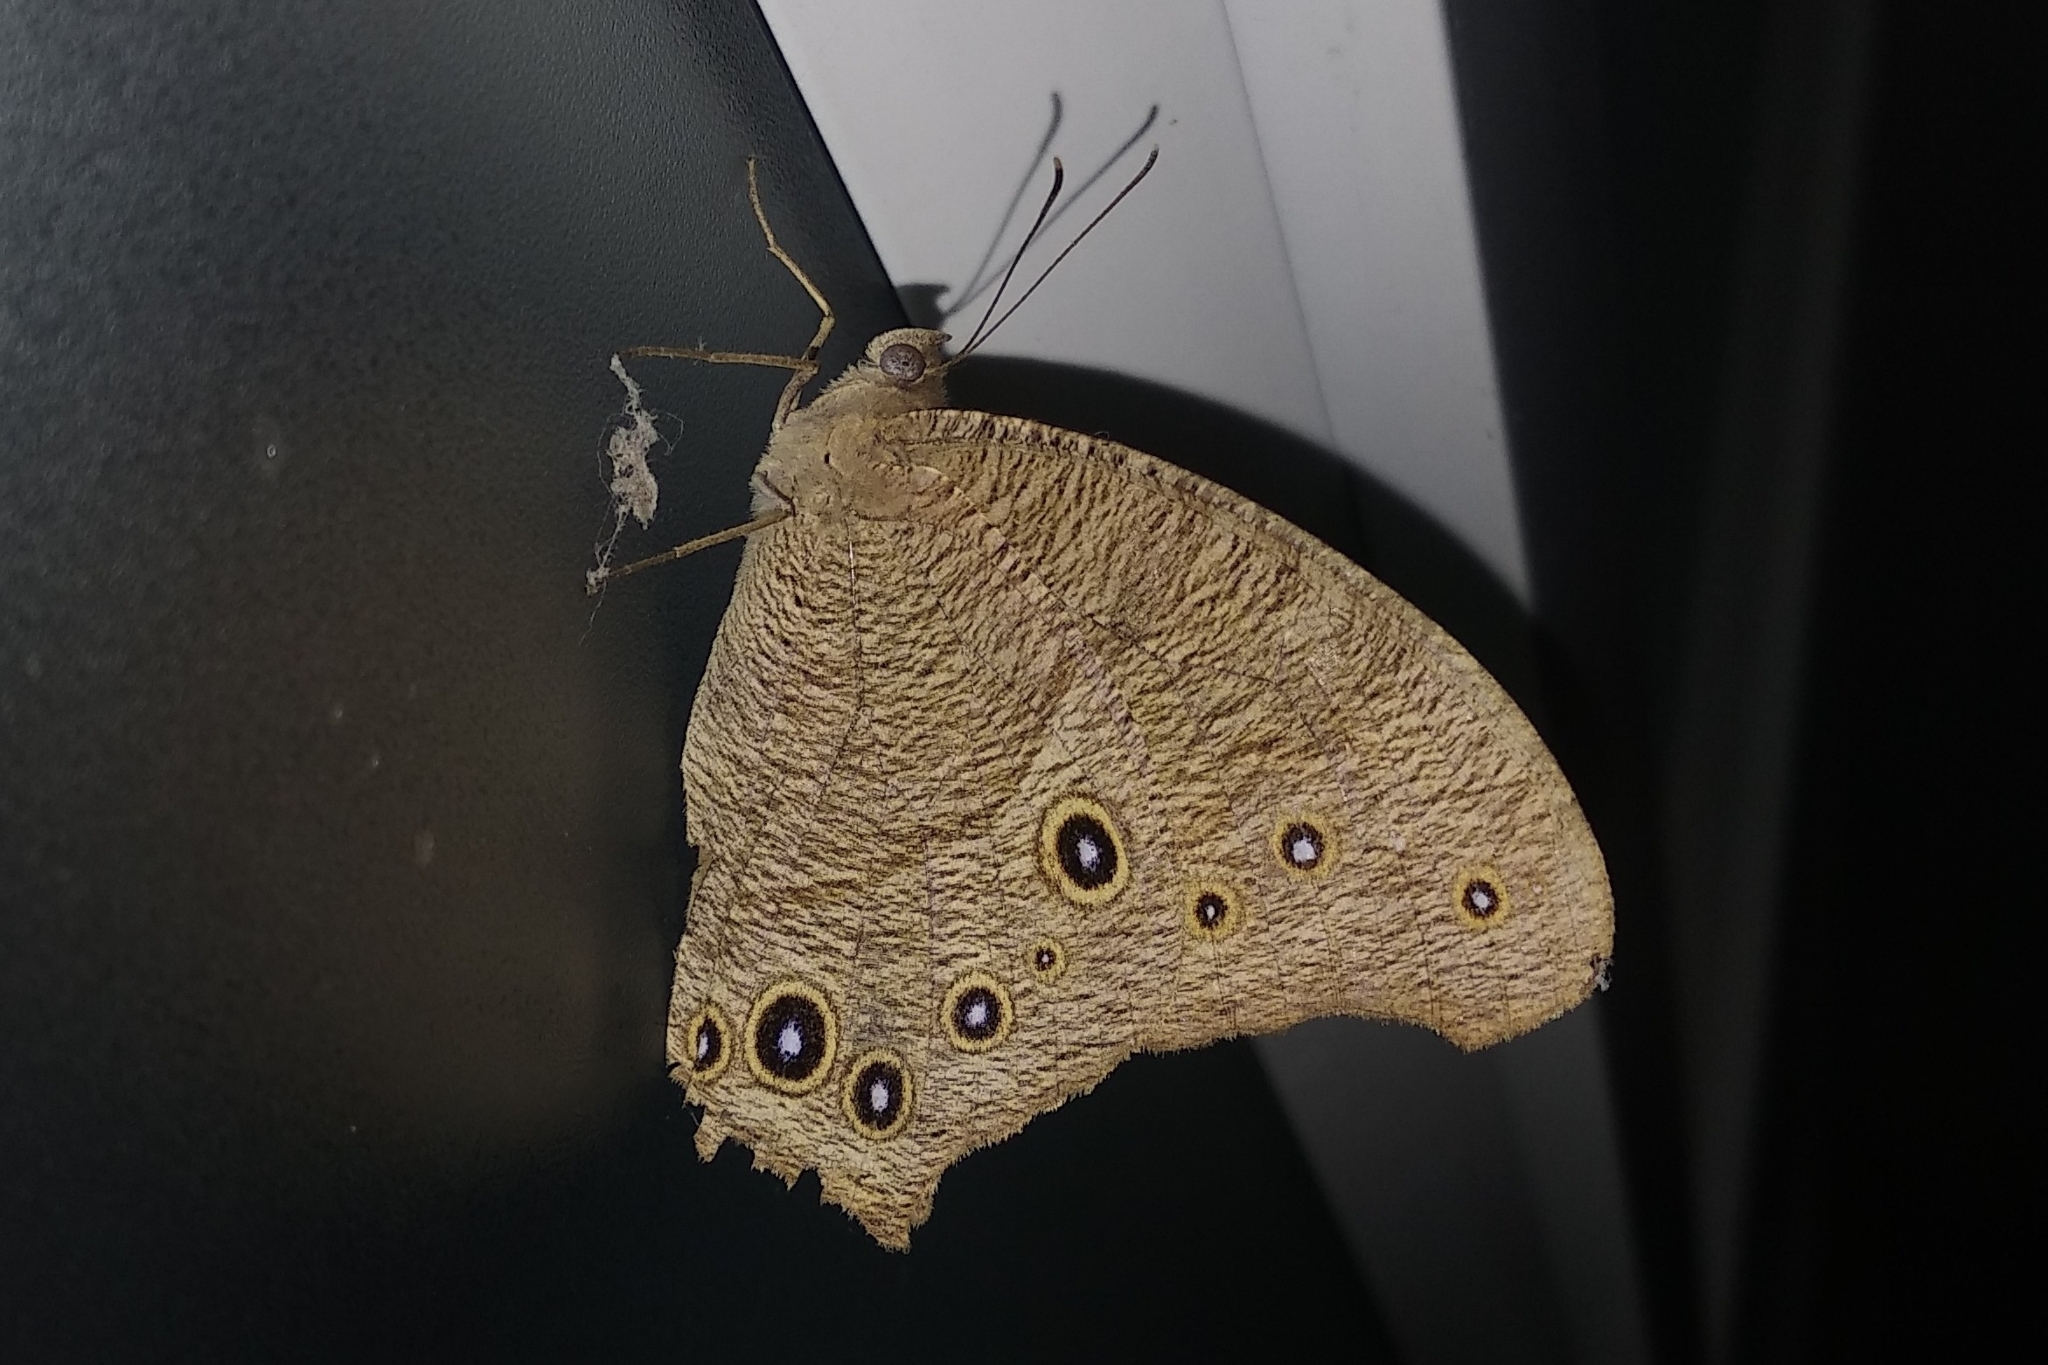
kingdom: Animalia
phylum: Arthropoda
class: Insecta
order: Lepidoptera
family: Nymphalidae
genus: Melanitis
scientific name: Melanitis leda
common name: Twilight brown
